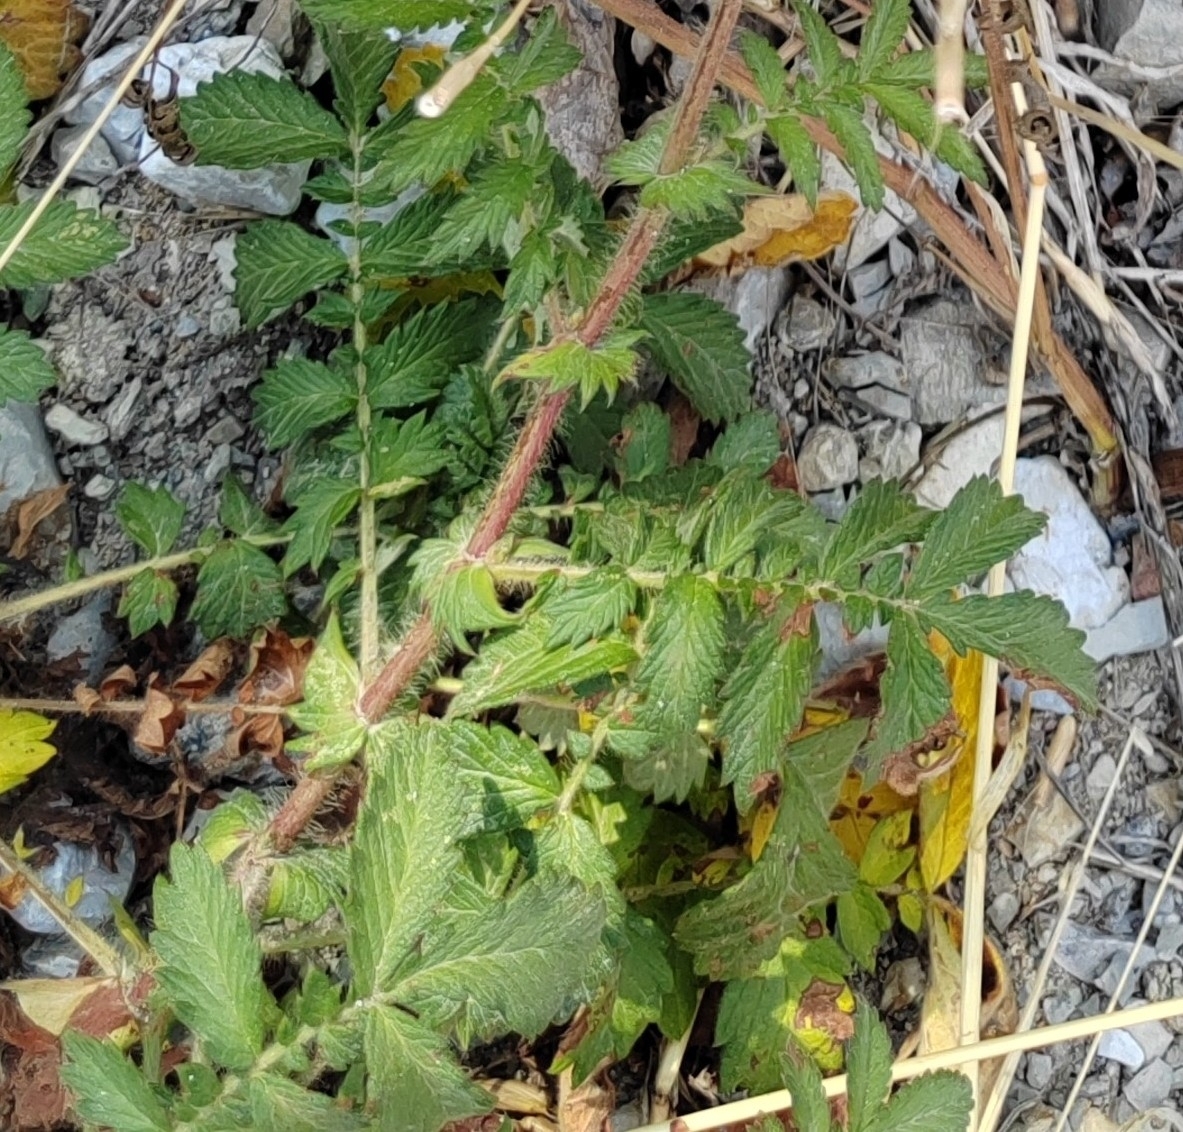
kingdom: Plantae
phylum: Tracheophyta
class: Magnoliopsida
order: Rosales
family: Rosaceae
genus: Agrimonia
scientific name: Agrimonia eupatoria
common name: Agrimony
